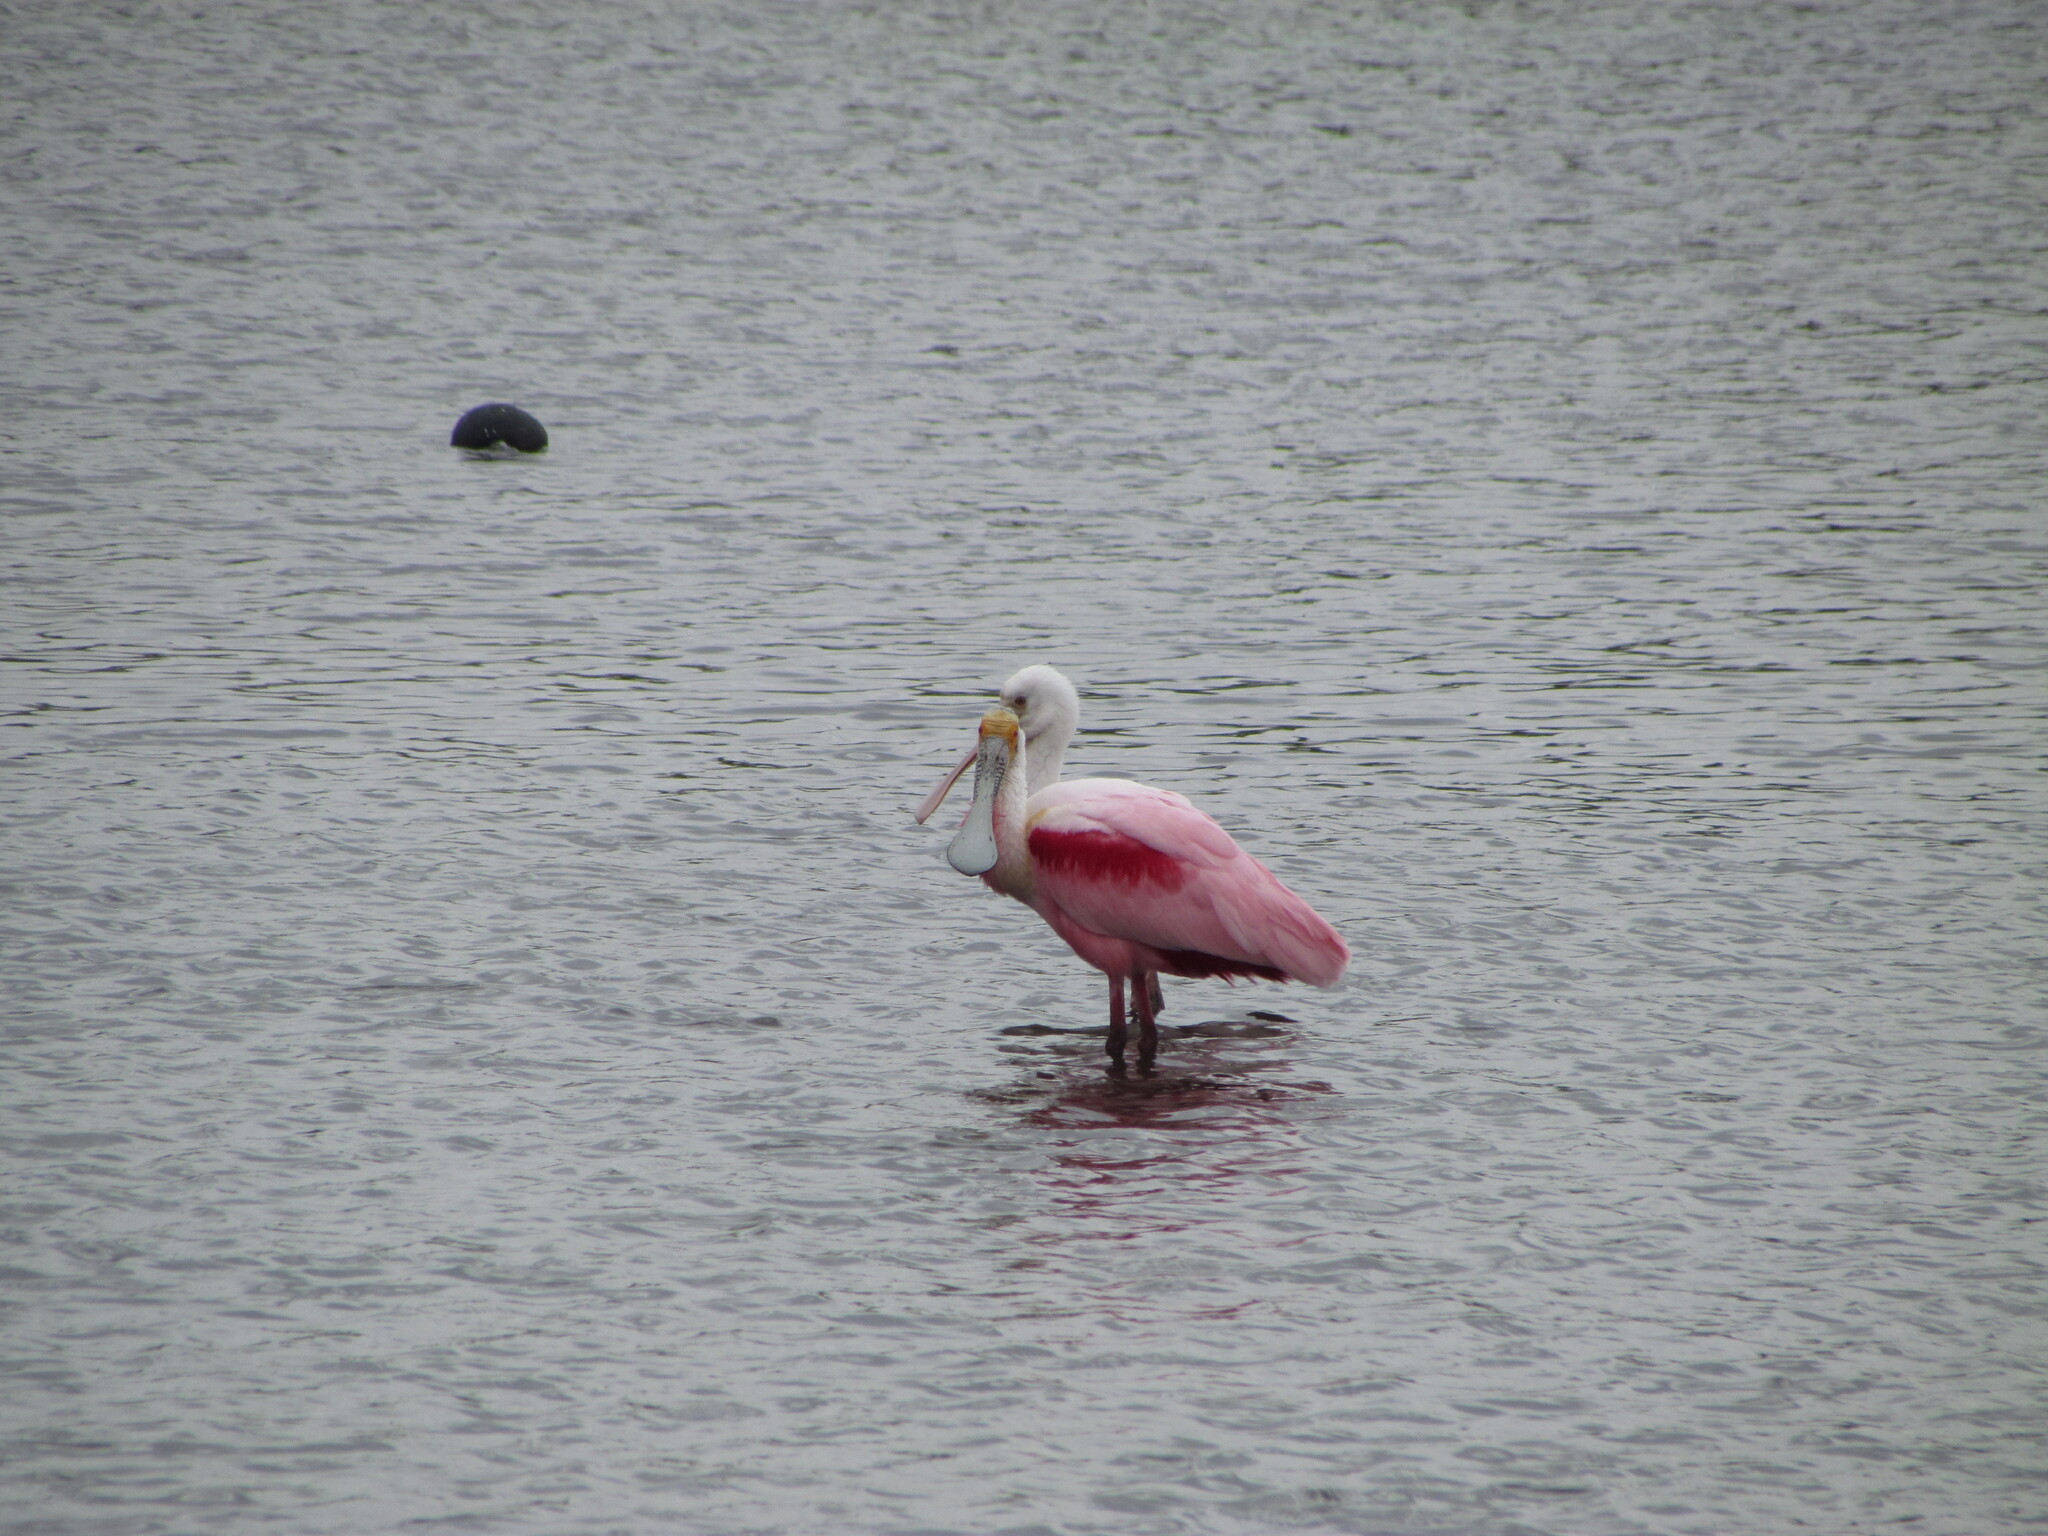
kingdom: Animalia
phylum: Chordata
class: Aves
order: Pelecaniformes
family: Threskiornithidae
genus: Platalea
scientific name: Platalea ajaja
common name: Roseate spoonbill
